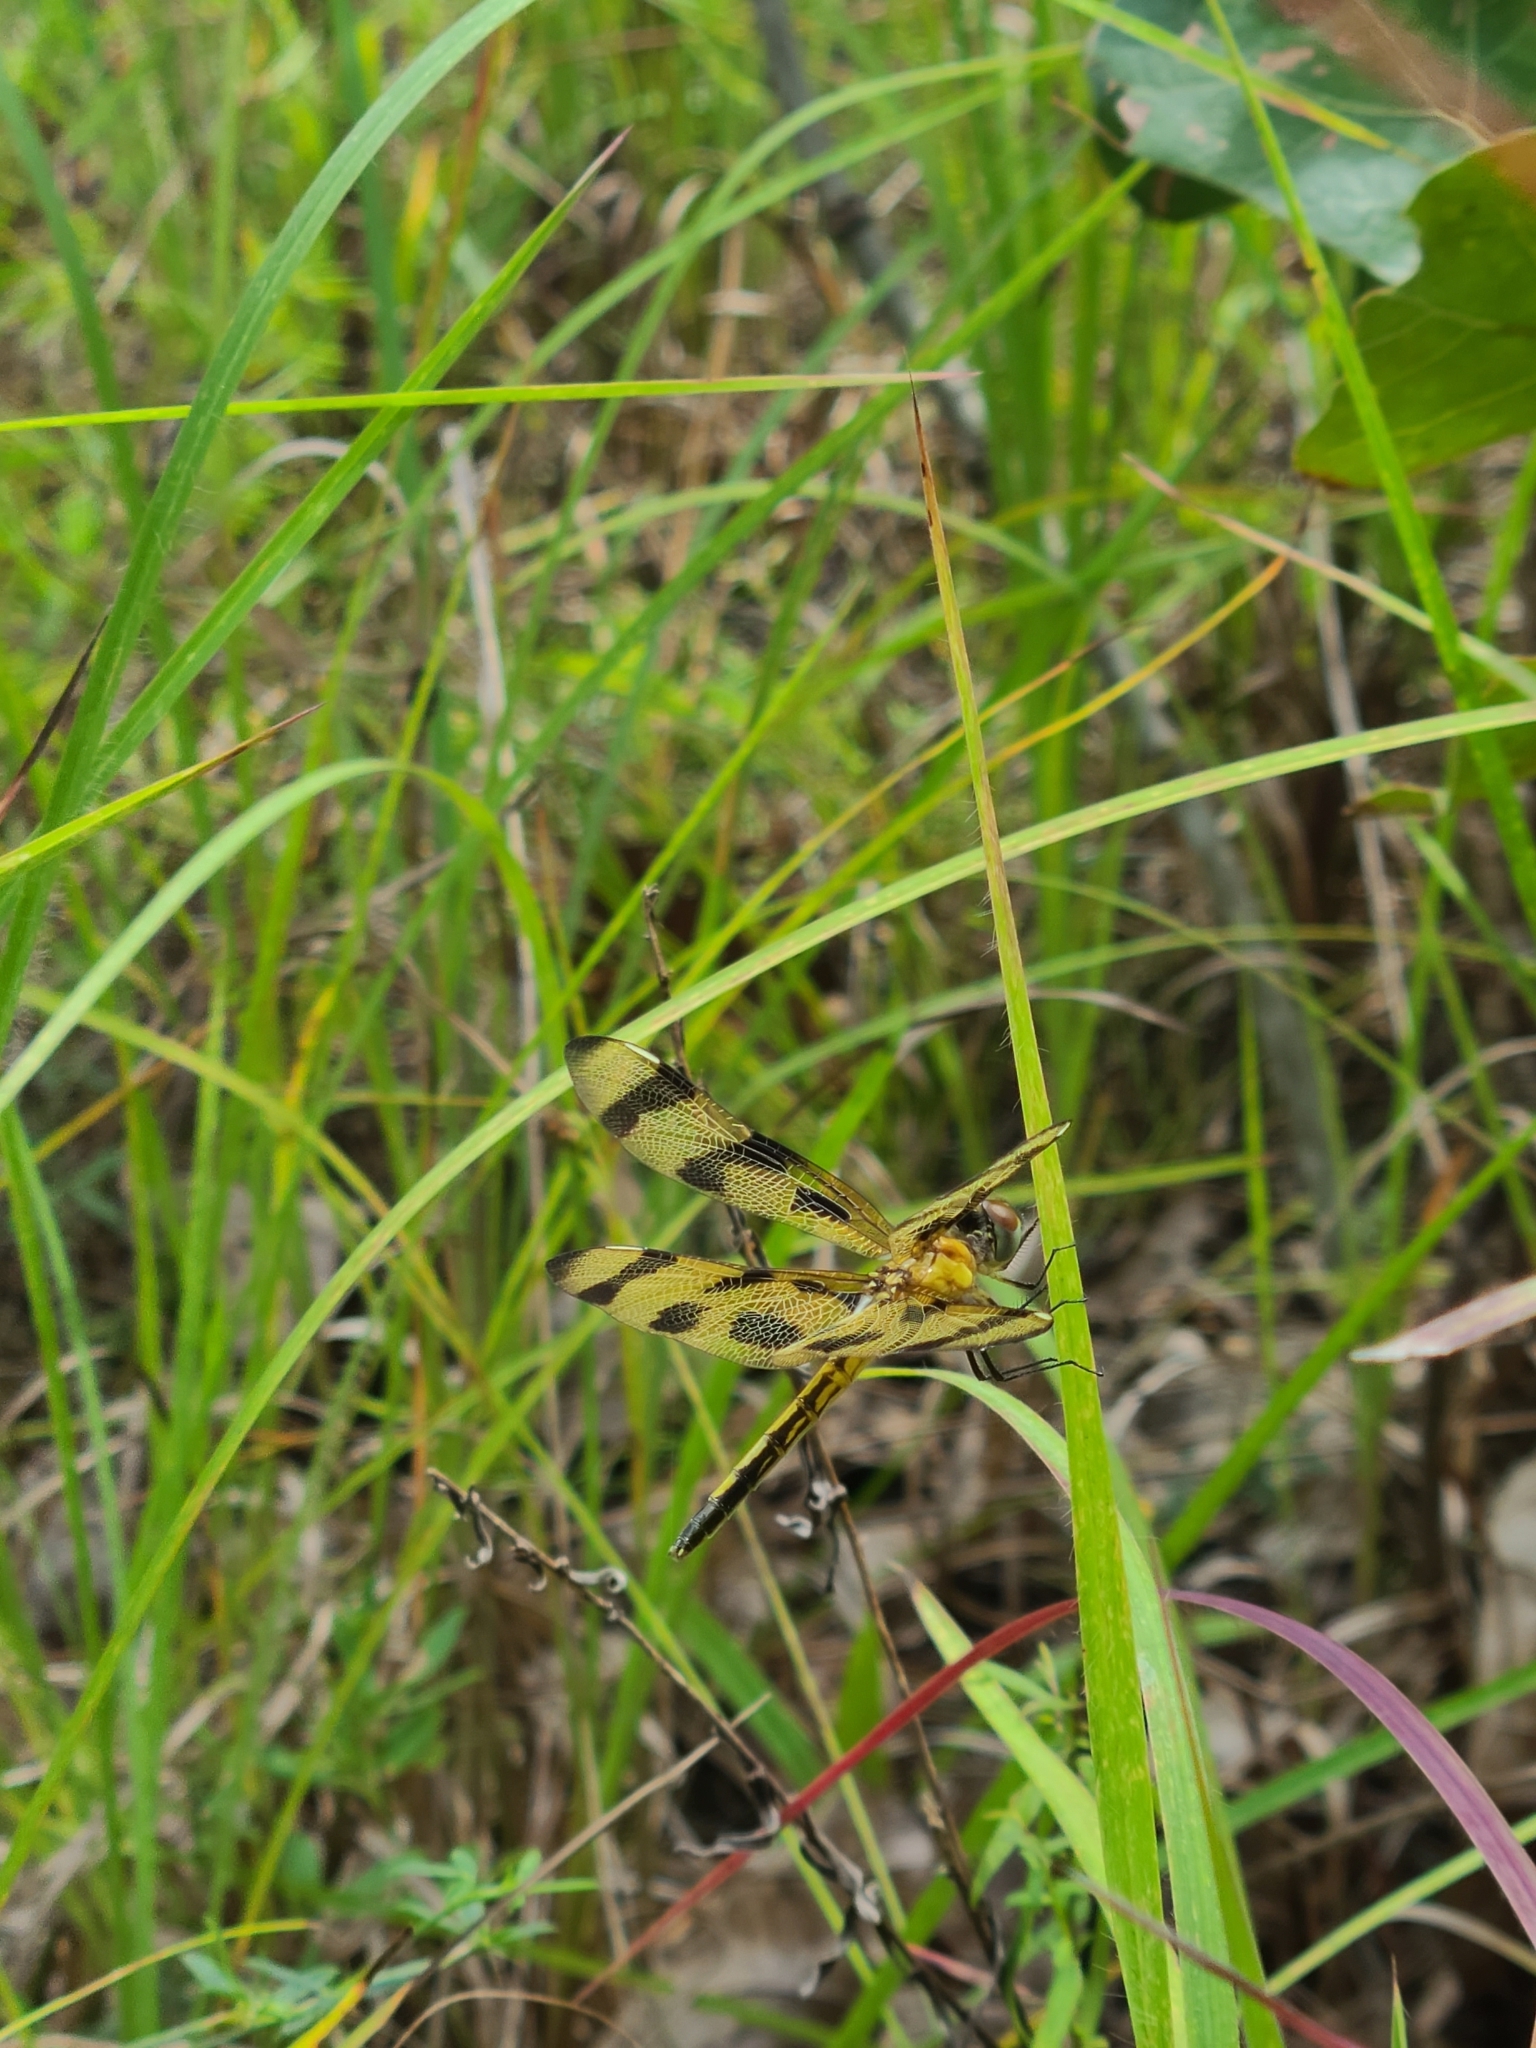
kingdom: Animalia
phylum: Arthropoda
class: Insecta
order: Odonata
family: Libellulidae
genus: Celithemis
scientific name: Celithemis eponina
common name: Halloween pennant
